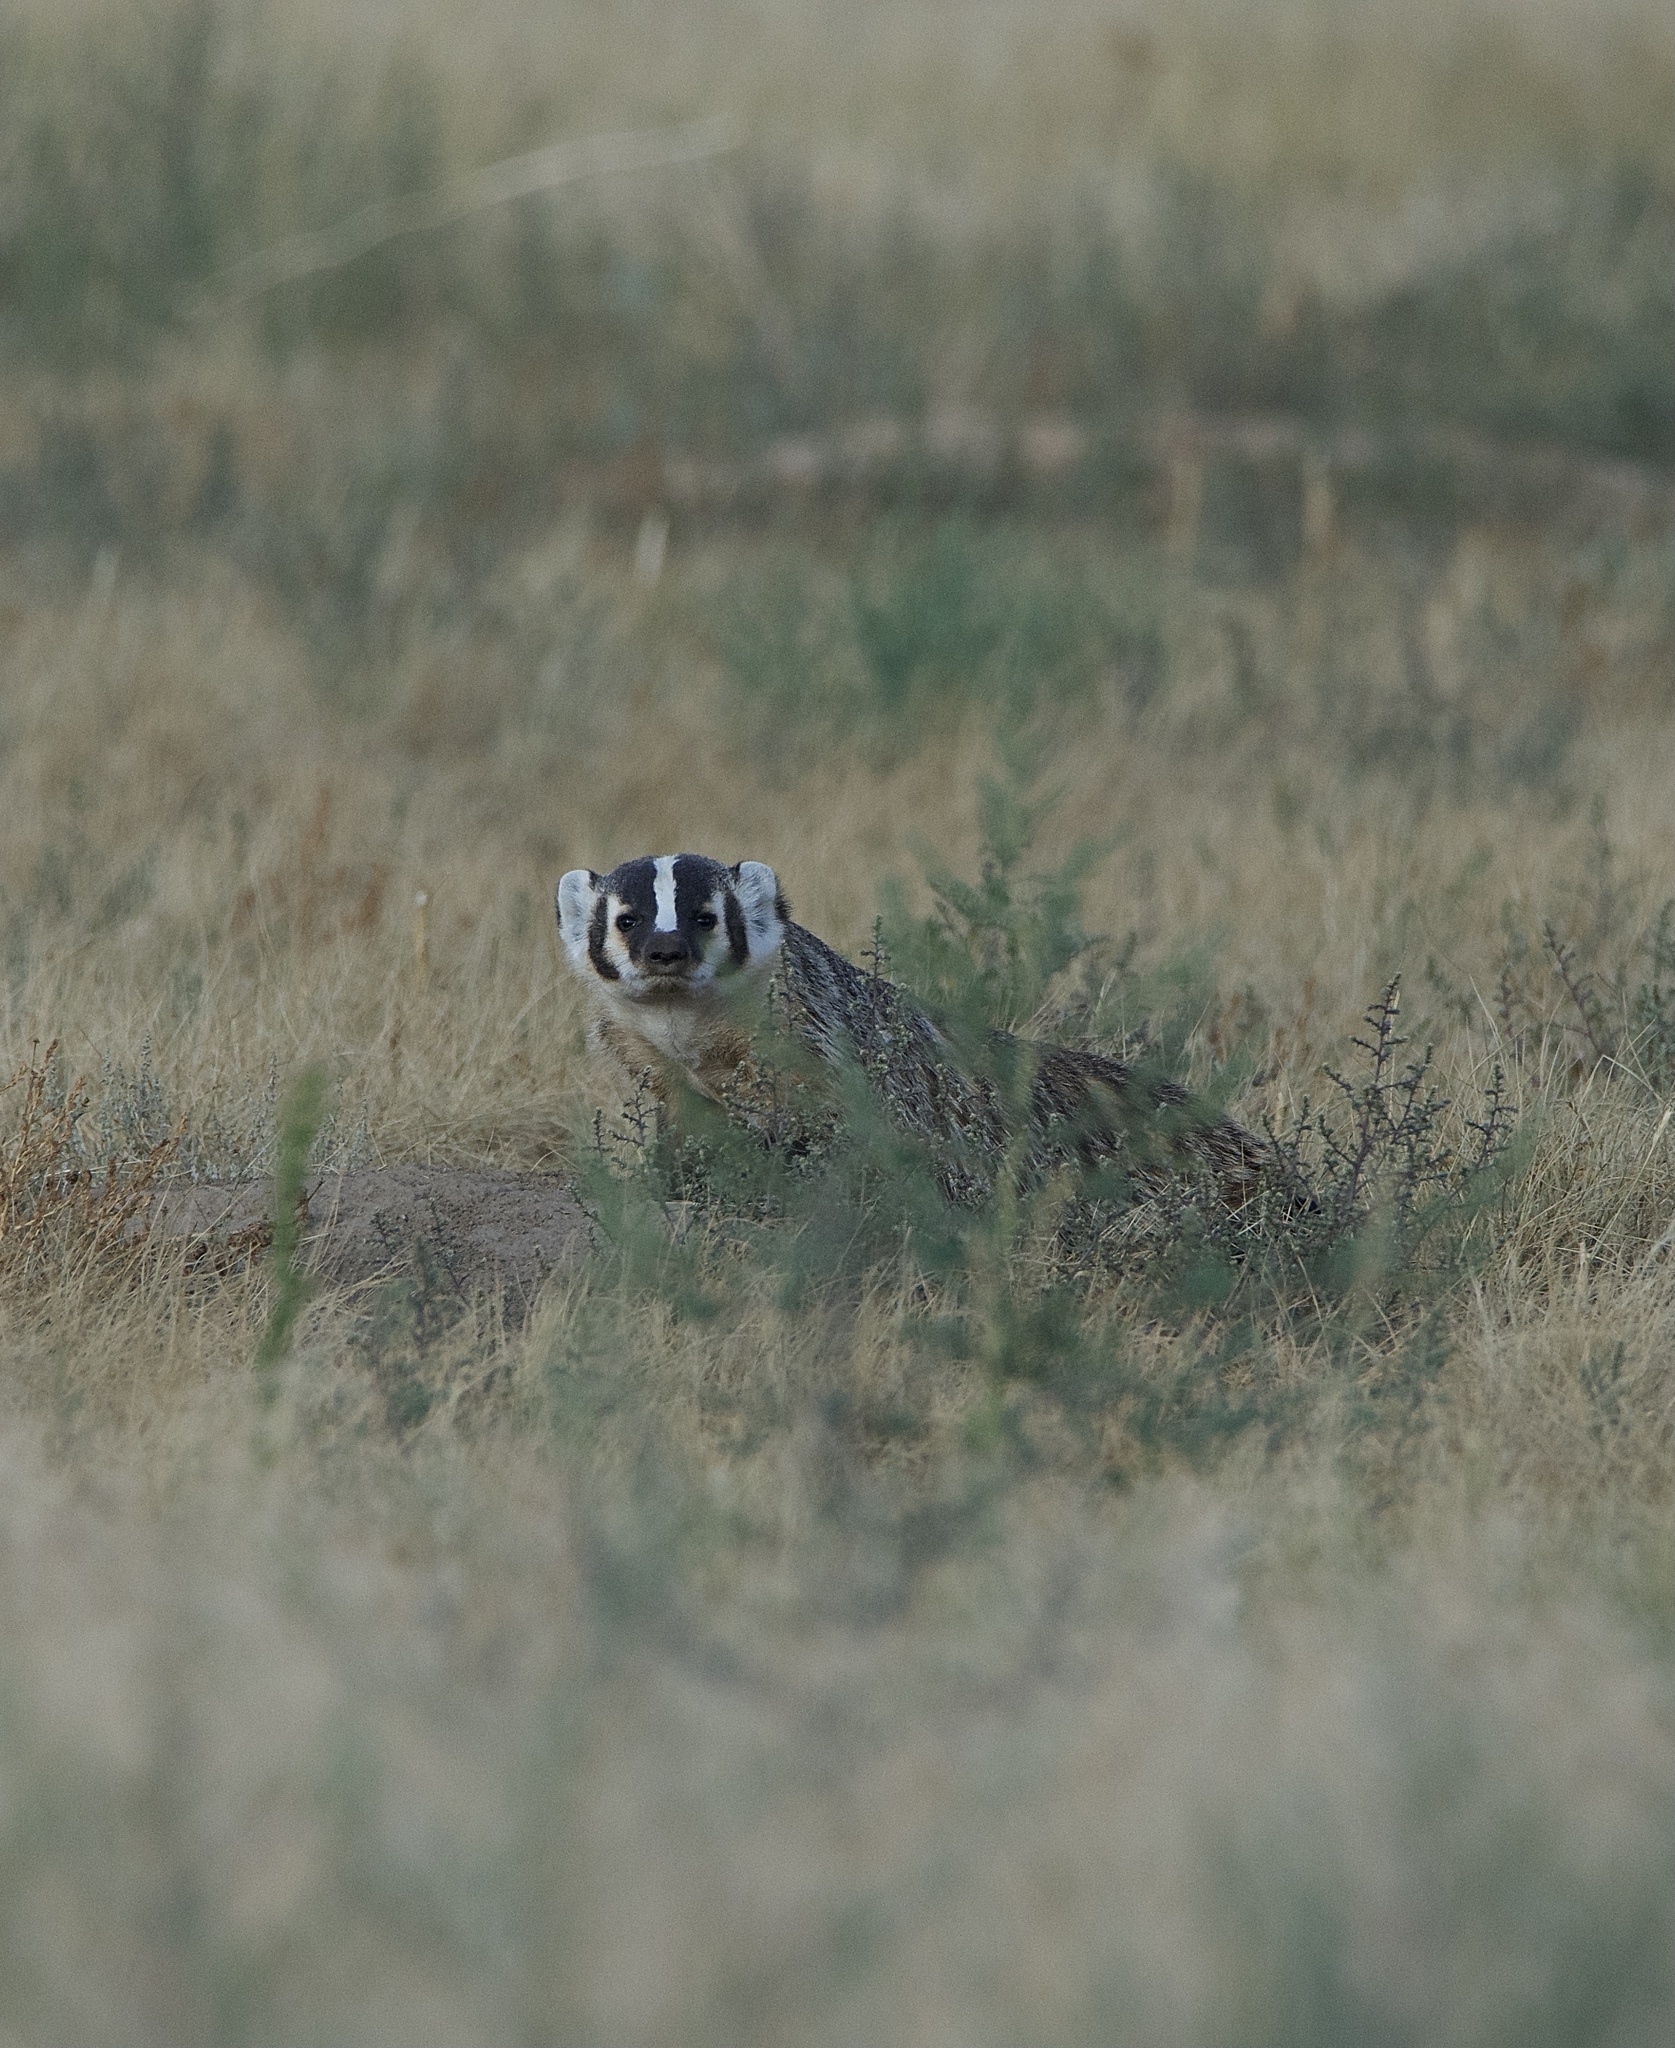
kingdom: Animalia
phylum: Chordata
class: Mammalia
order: Carnivora
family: Mustelidae
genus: Taxidea
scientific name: Taxidea taxus
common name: American badger
